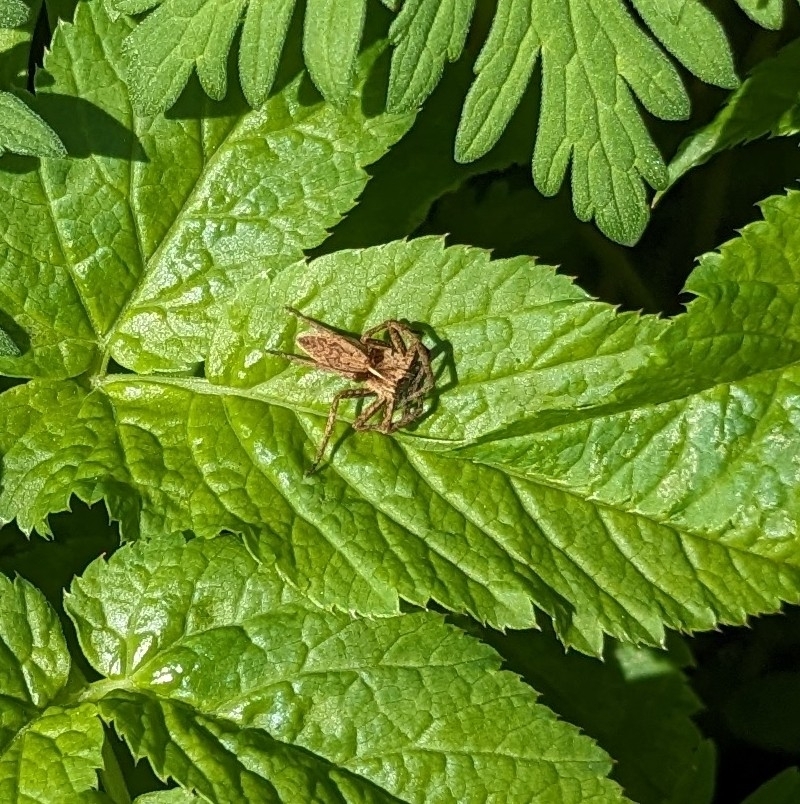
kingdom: Animalia
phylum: Arthropoda
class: Arachnida
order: Araneae
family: Pisauridae
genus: Pisaura
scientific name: Pisaura mirabilis
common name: Tent spider
